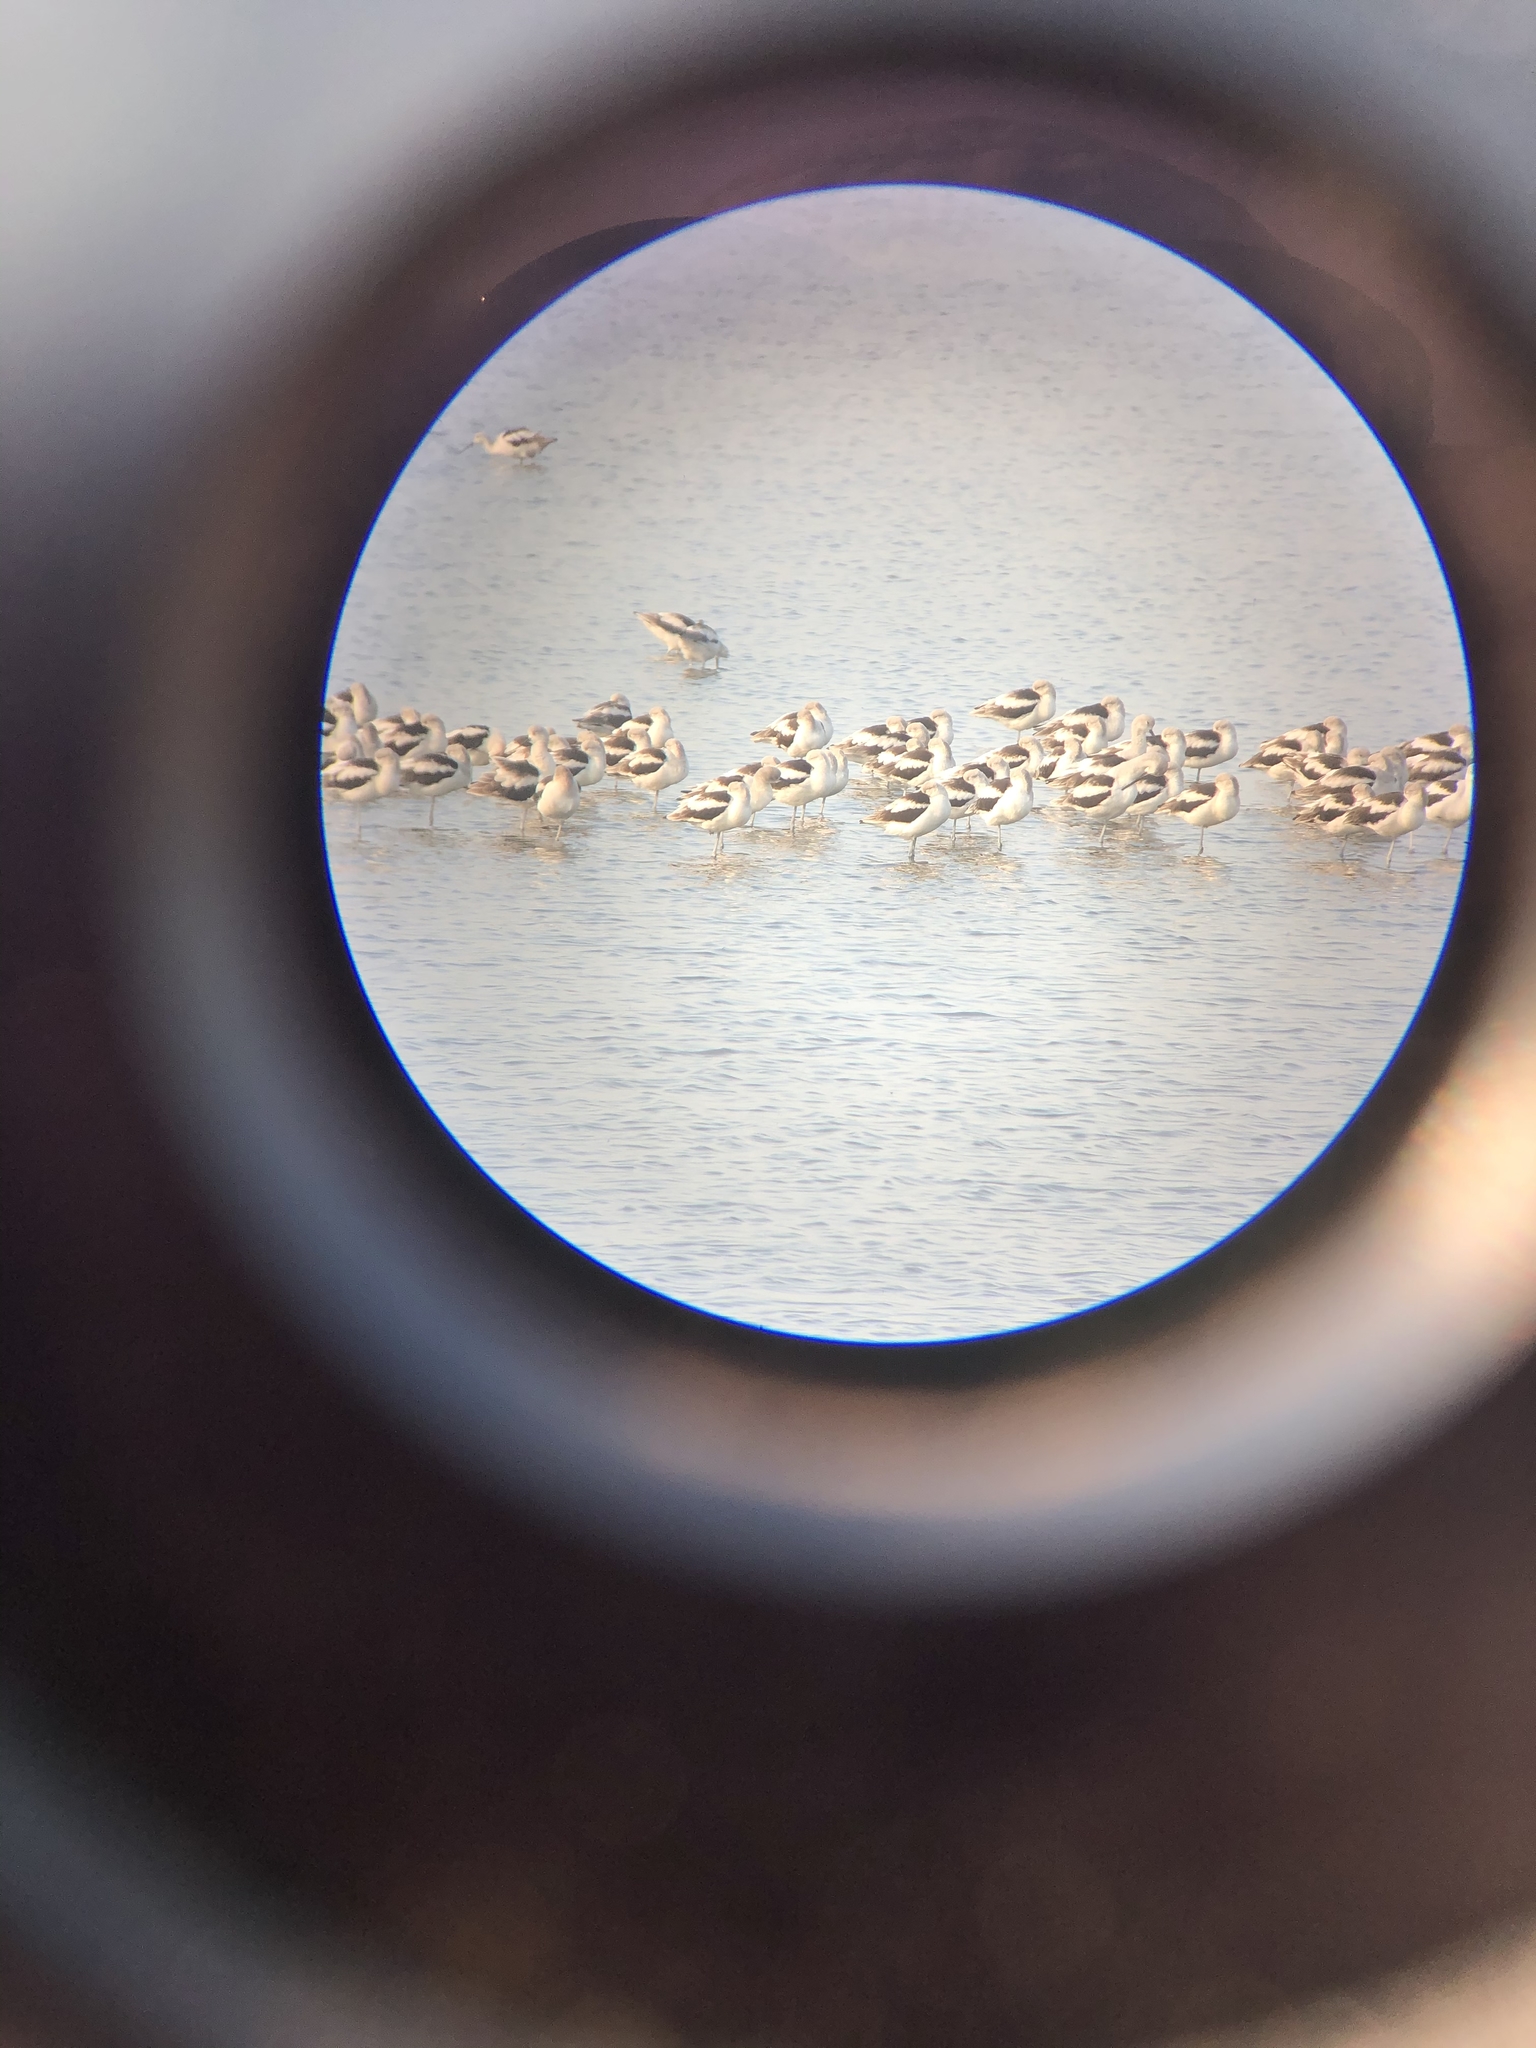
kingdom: Animalia
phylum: Chordata
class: Aves
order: Charadriiformes
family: Recurvirostridae
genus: Recurvirostra
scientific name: Recurvirostra americana
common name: American avocet
